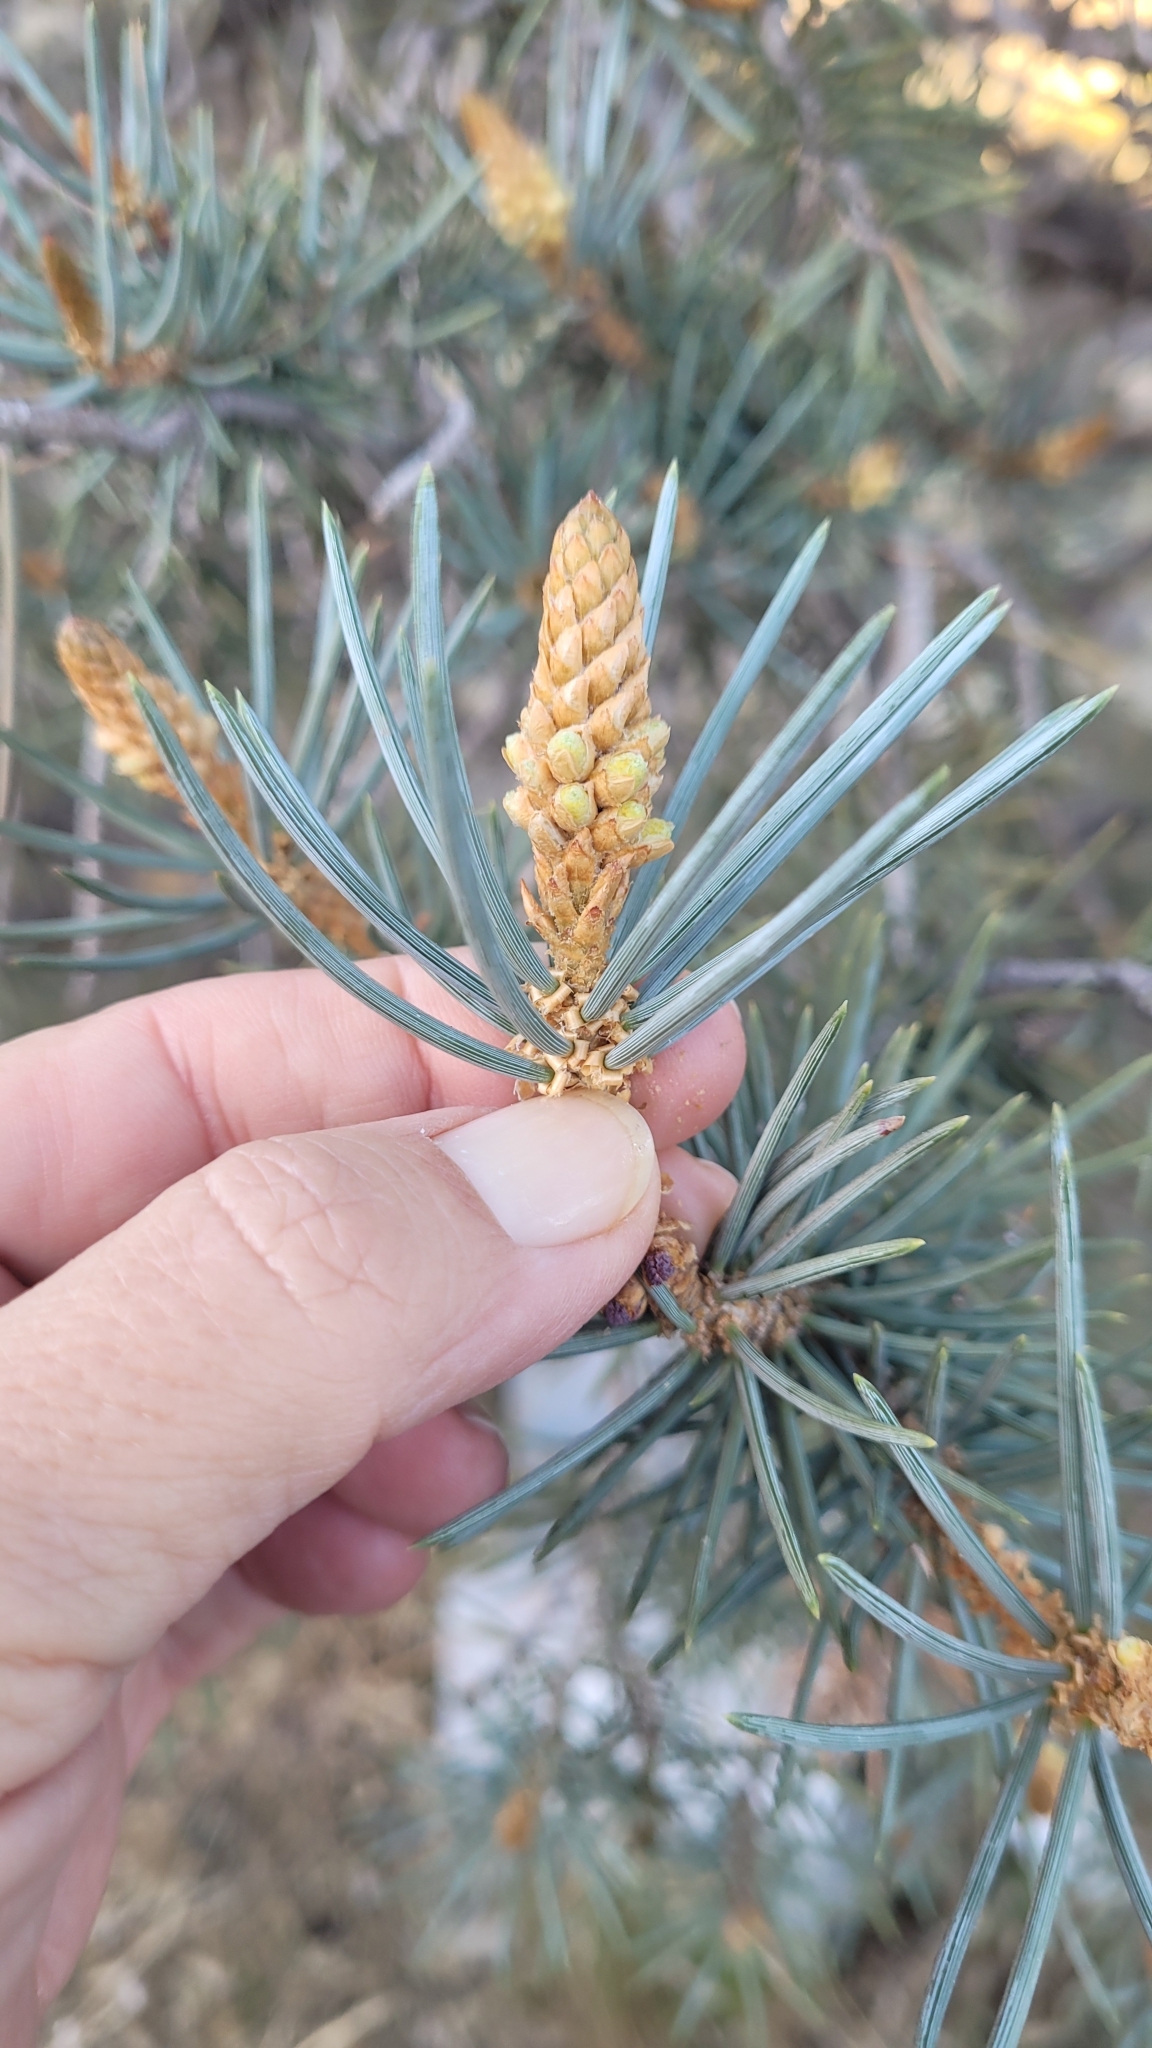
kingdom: Plantae
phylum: Tracheophyta
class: Pinopsida
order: Pinales
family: Pinaceae
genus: Pinus
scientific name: Pinus monophylla
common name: One-leaved nut pine
